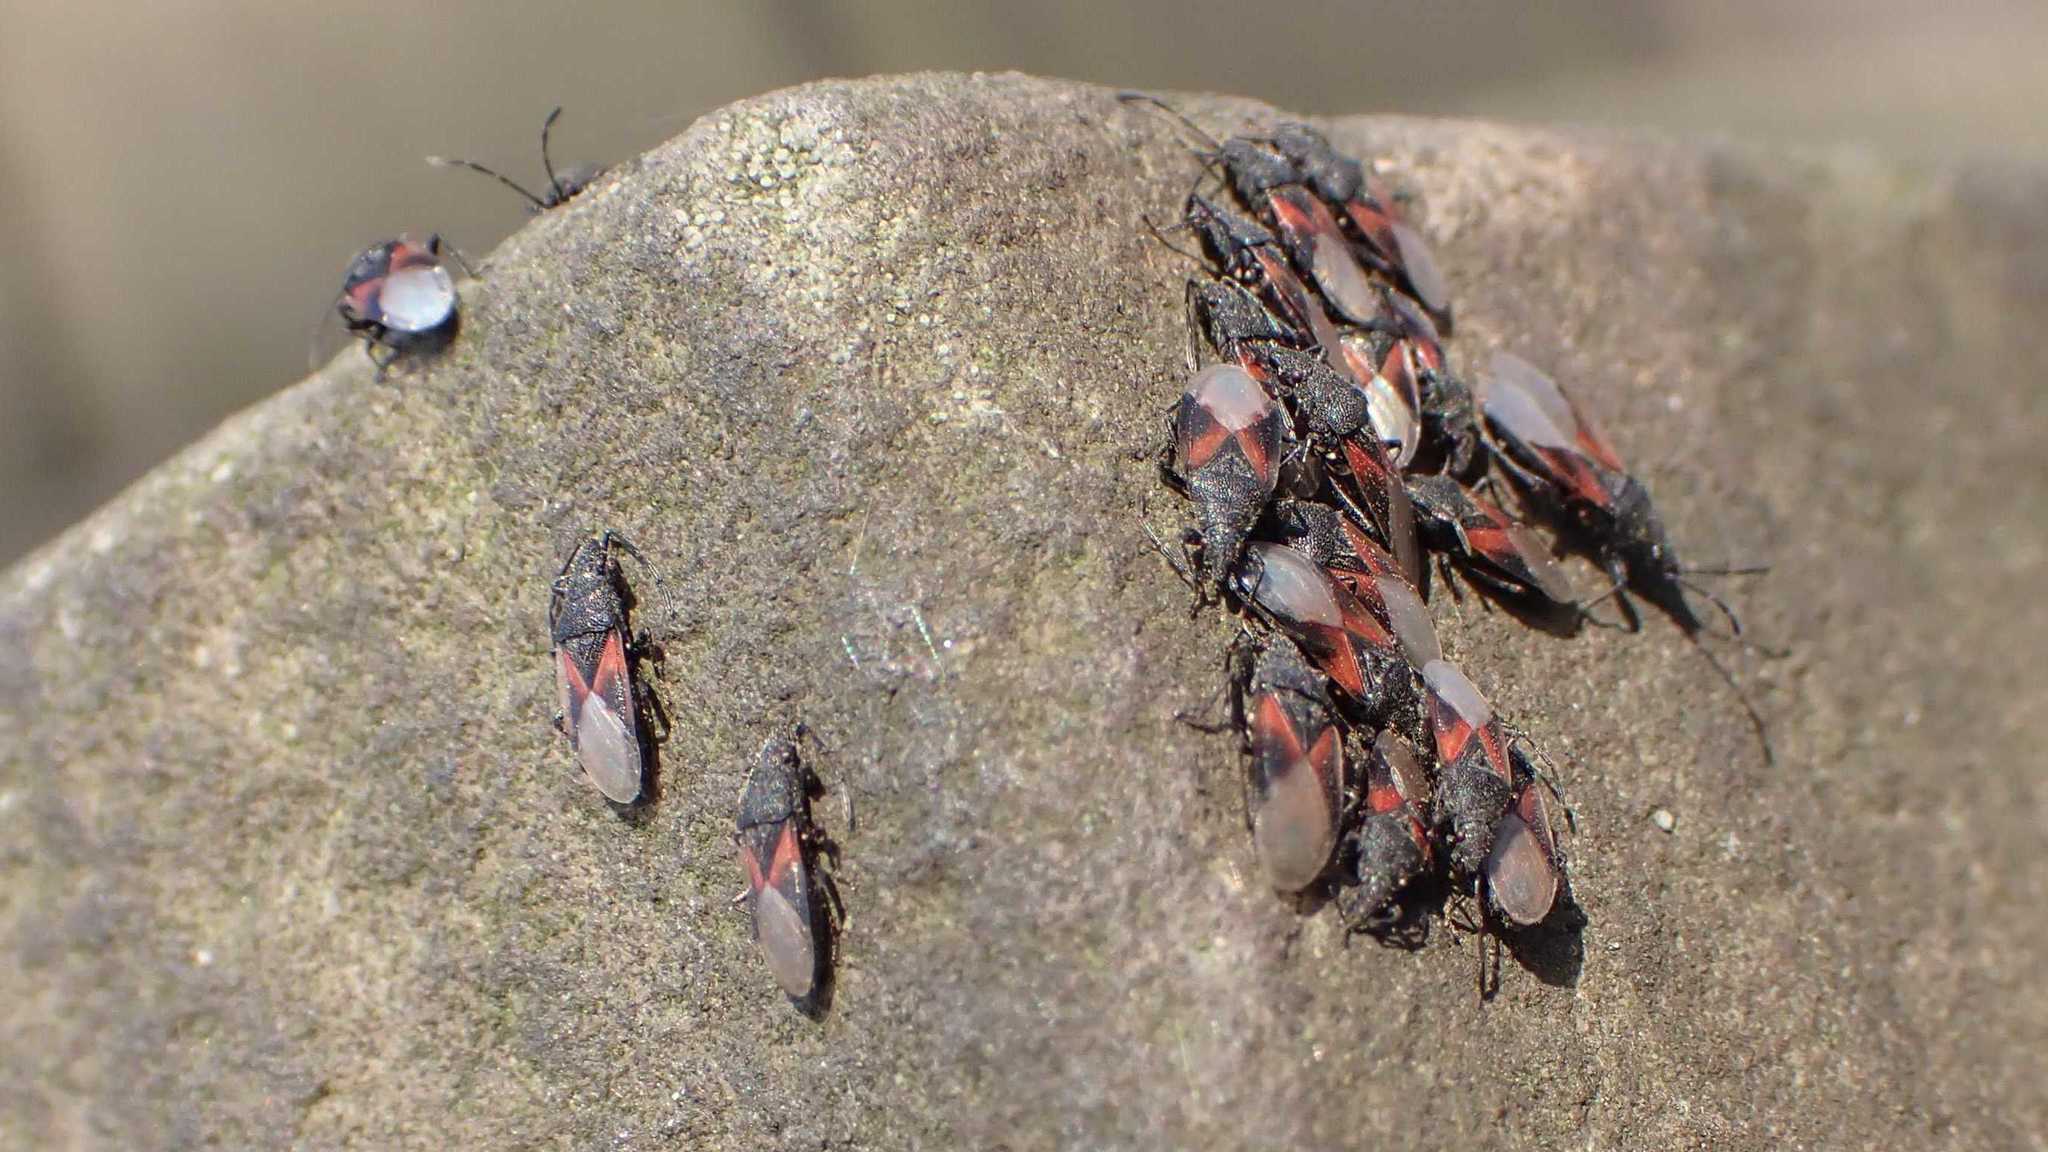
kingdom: Animalia
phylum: Arthropoda
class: Insecta
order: Hemiptera
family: Oxycarenidae
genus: Oxycarenus
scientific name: Oxycarenus lavaterae
